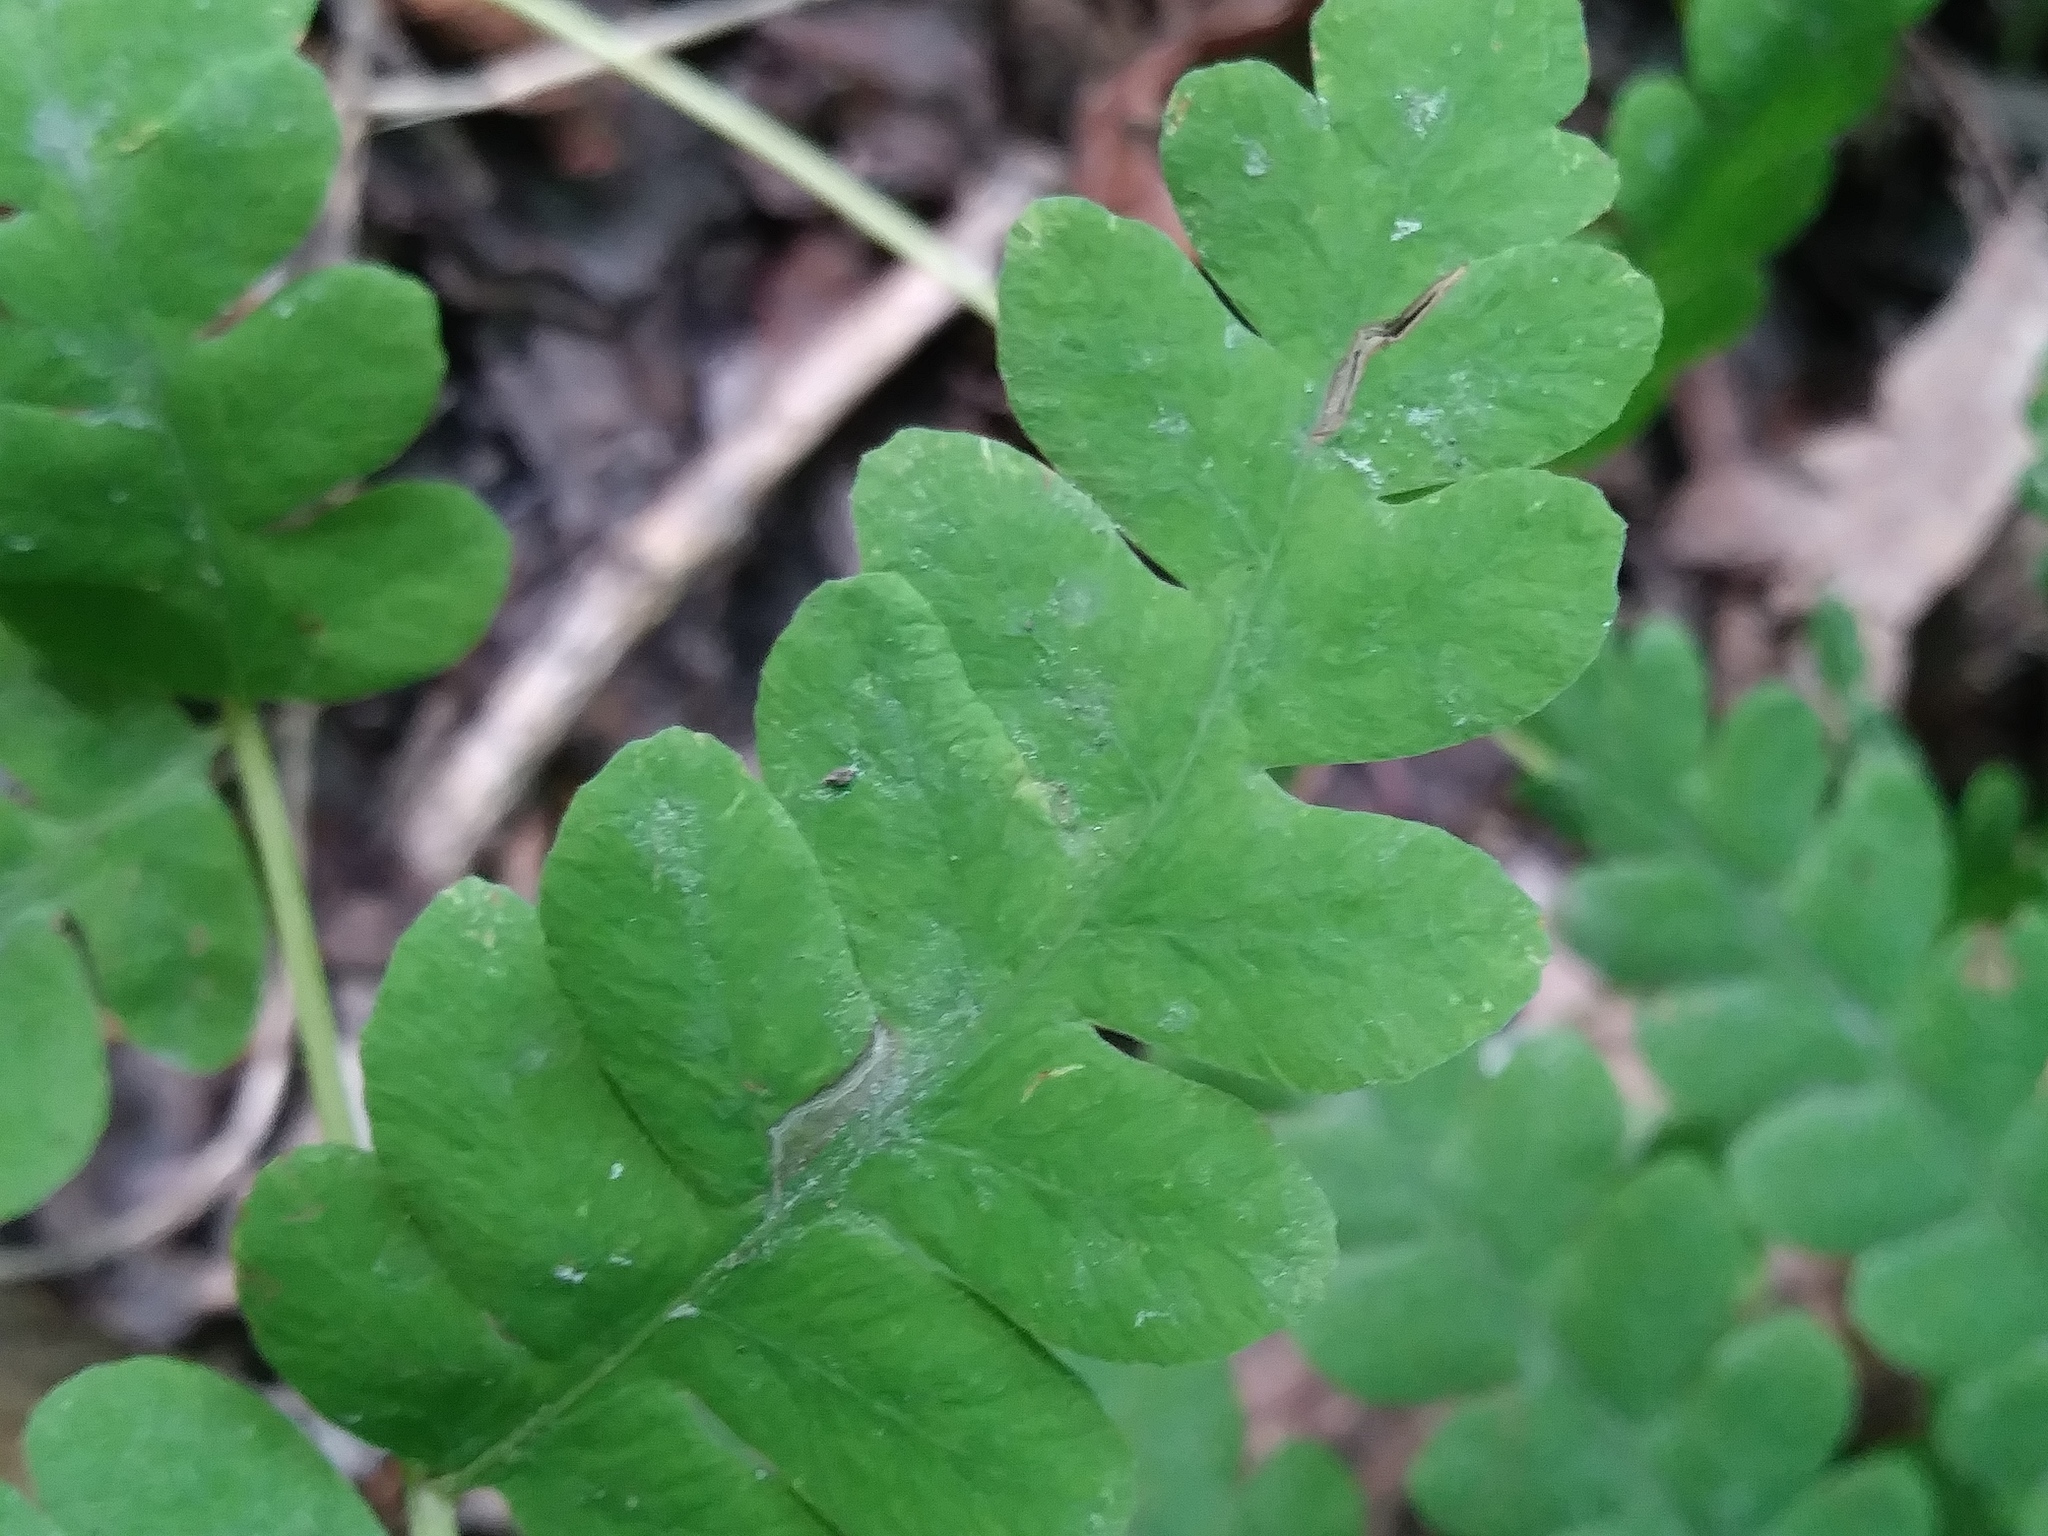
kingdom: Plantae
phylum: Tracheophyta
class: Polypodiopsida
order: Osmundales
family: Osmundaceae
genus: Claytosmunda
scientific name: Claytosmunda claytoniana
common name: Clayton's fern
